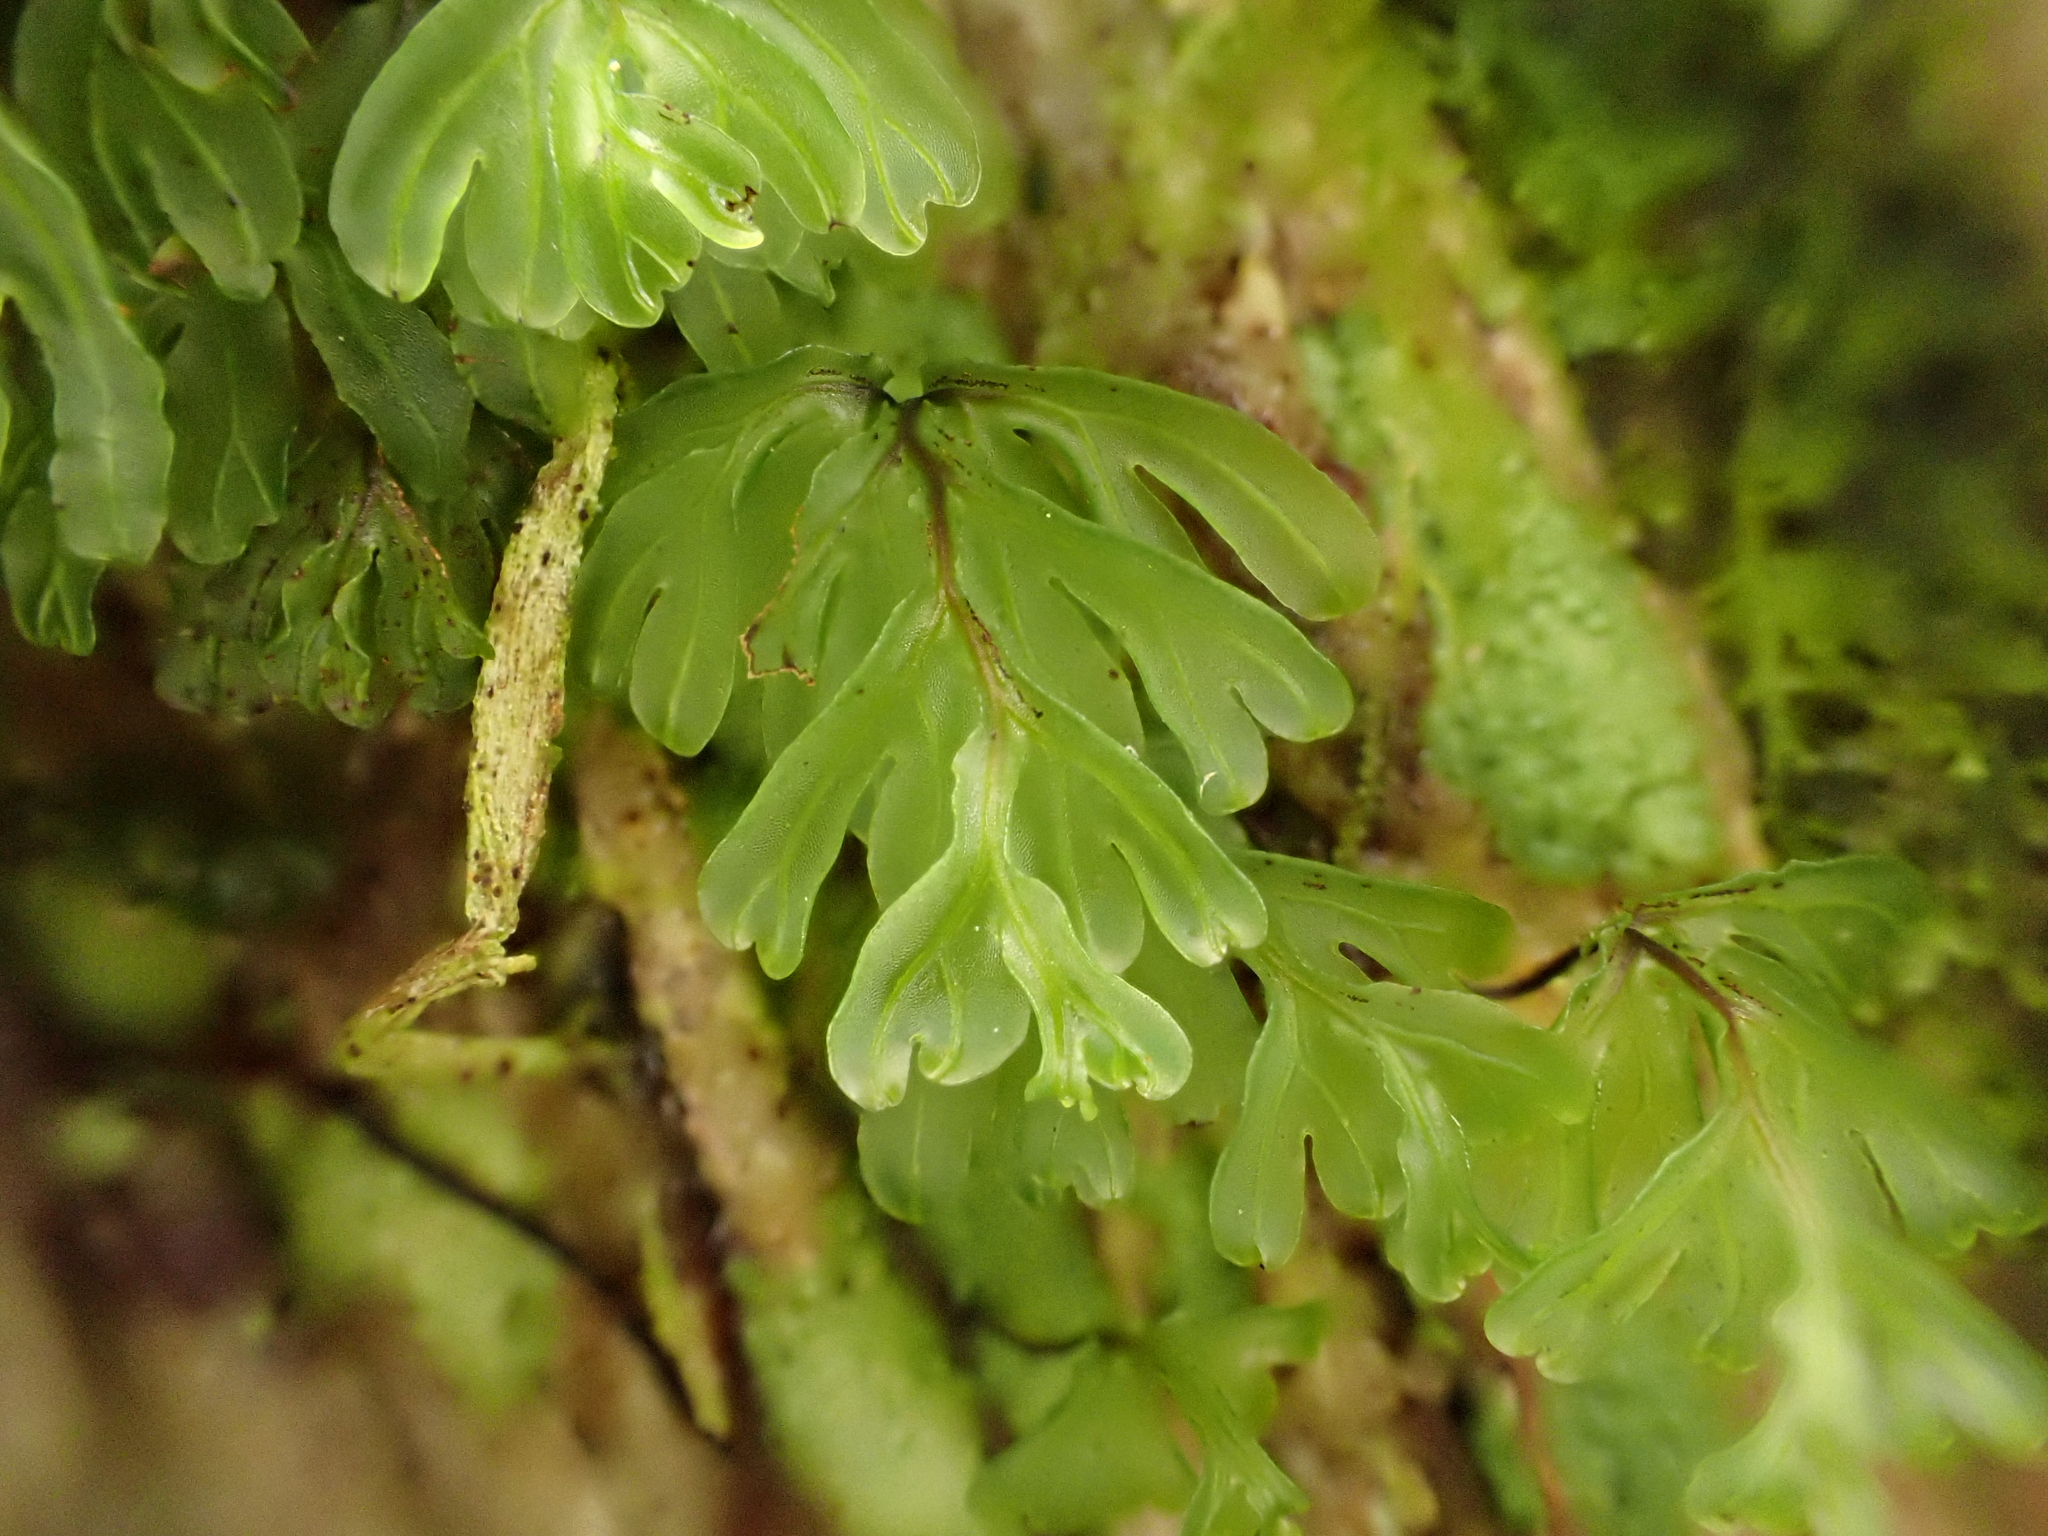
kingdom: Plantae
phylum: Tracheophyta
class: Polypodiopsida
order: Hymenophyllales
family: Hymenophyllaceae
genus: Hymenophyllum
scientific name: Hymenophyllum rarum
